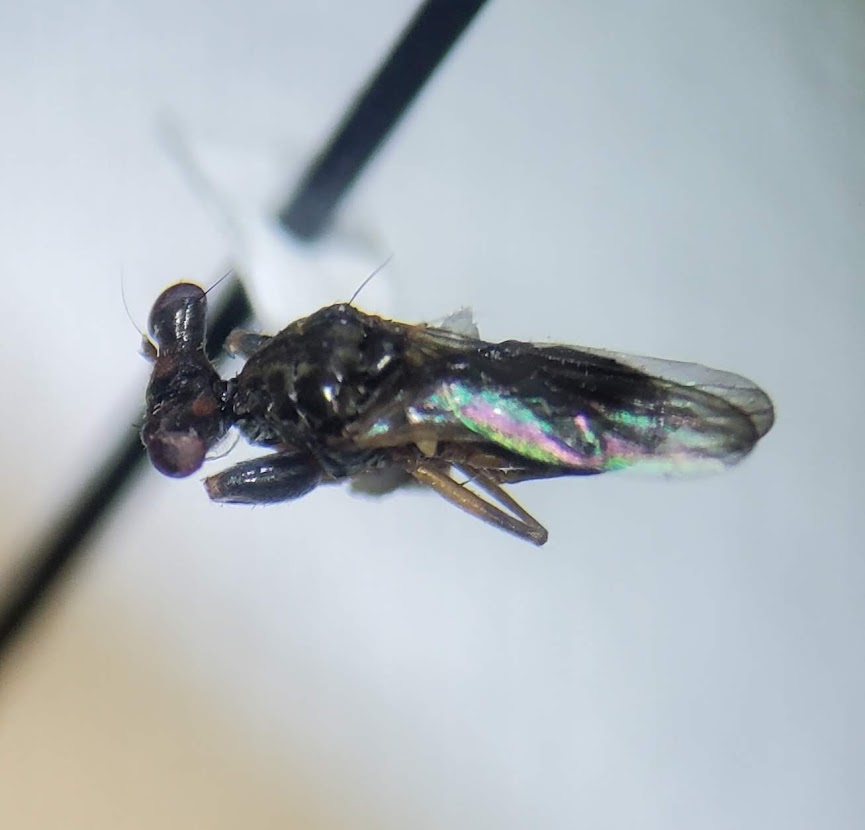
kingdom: Animalia
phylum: Arthropoda
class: Insecta
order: Diptera
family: Diopsidae
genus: Sphyracephala
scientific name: Sphyracephala brevicornis
